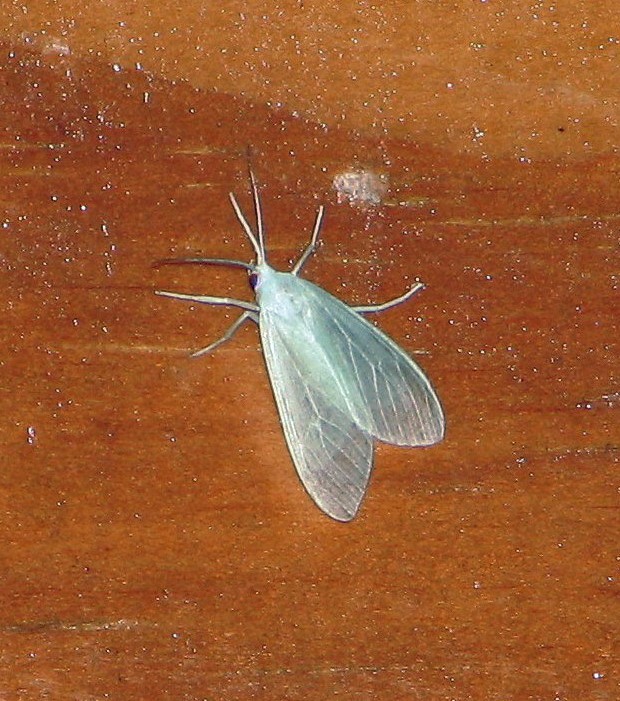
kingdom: Animalia
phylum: Arthropoda
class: Insecta
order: Lepidoptera
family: Erebidae
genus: Eucereon
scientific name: Eucereon vestalis
